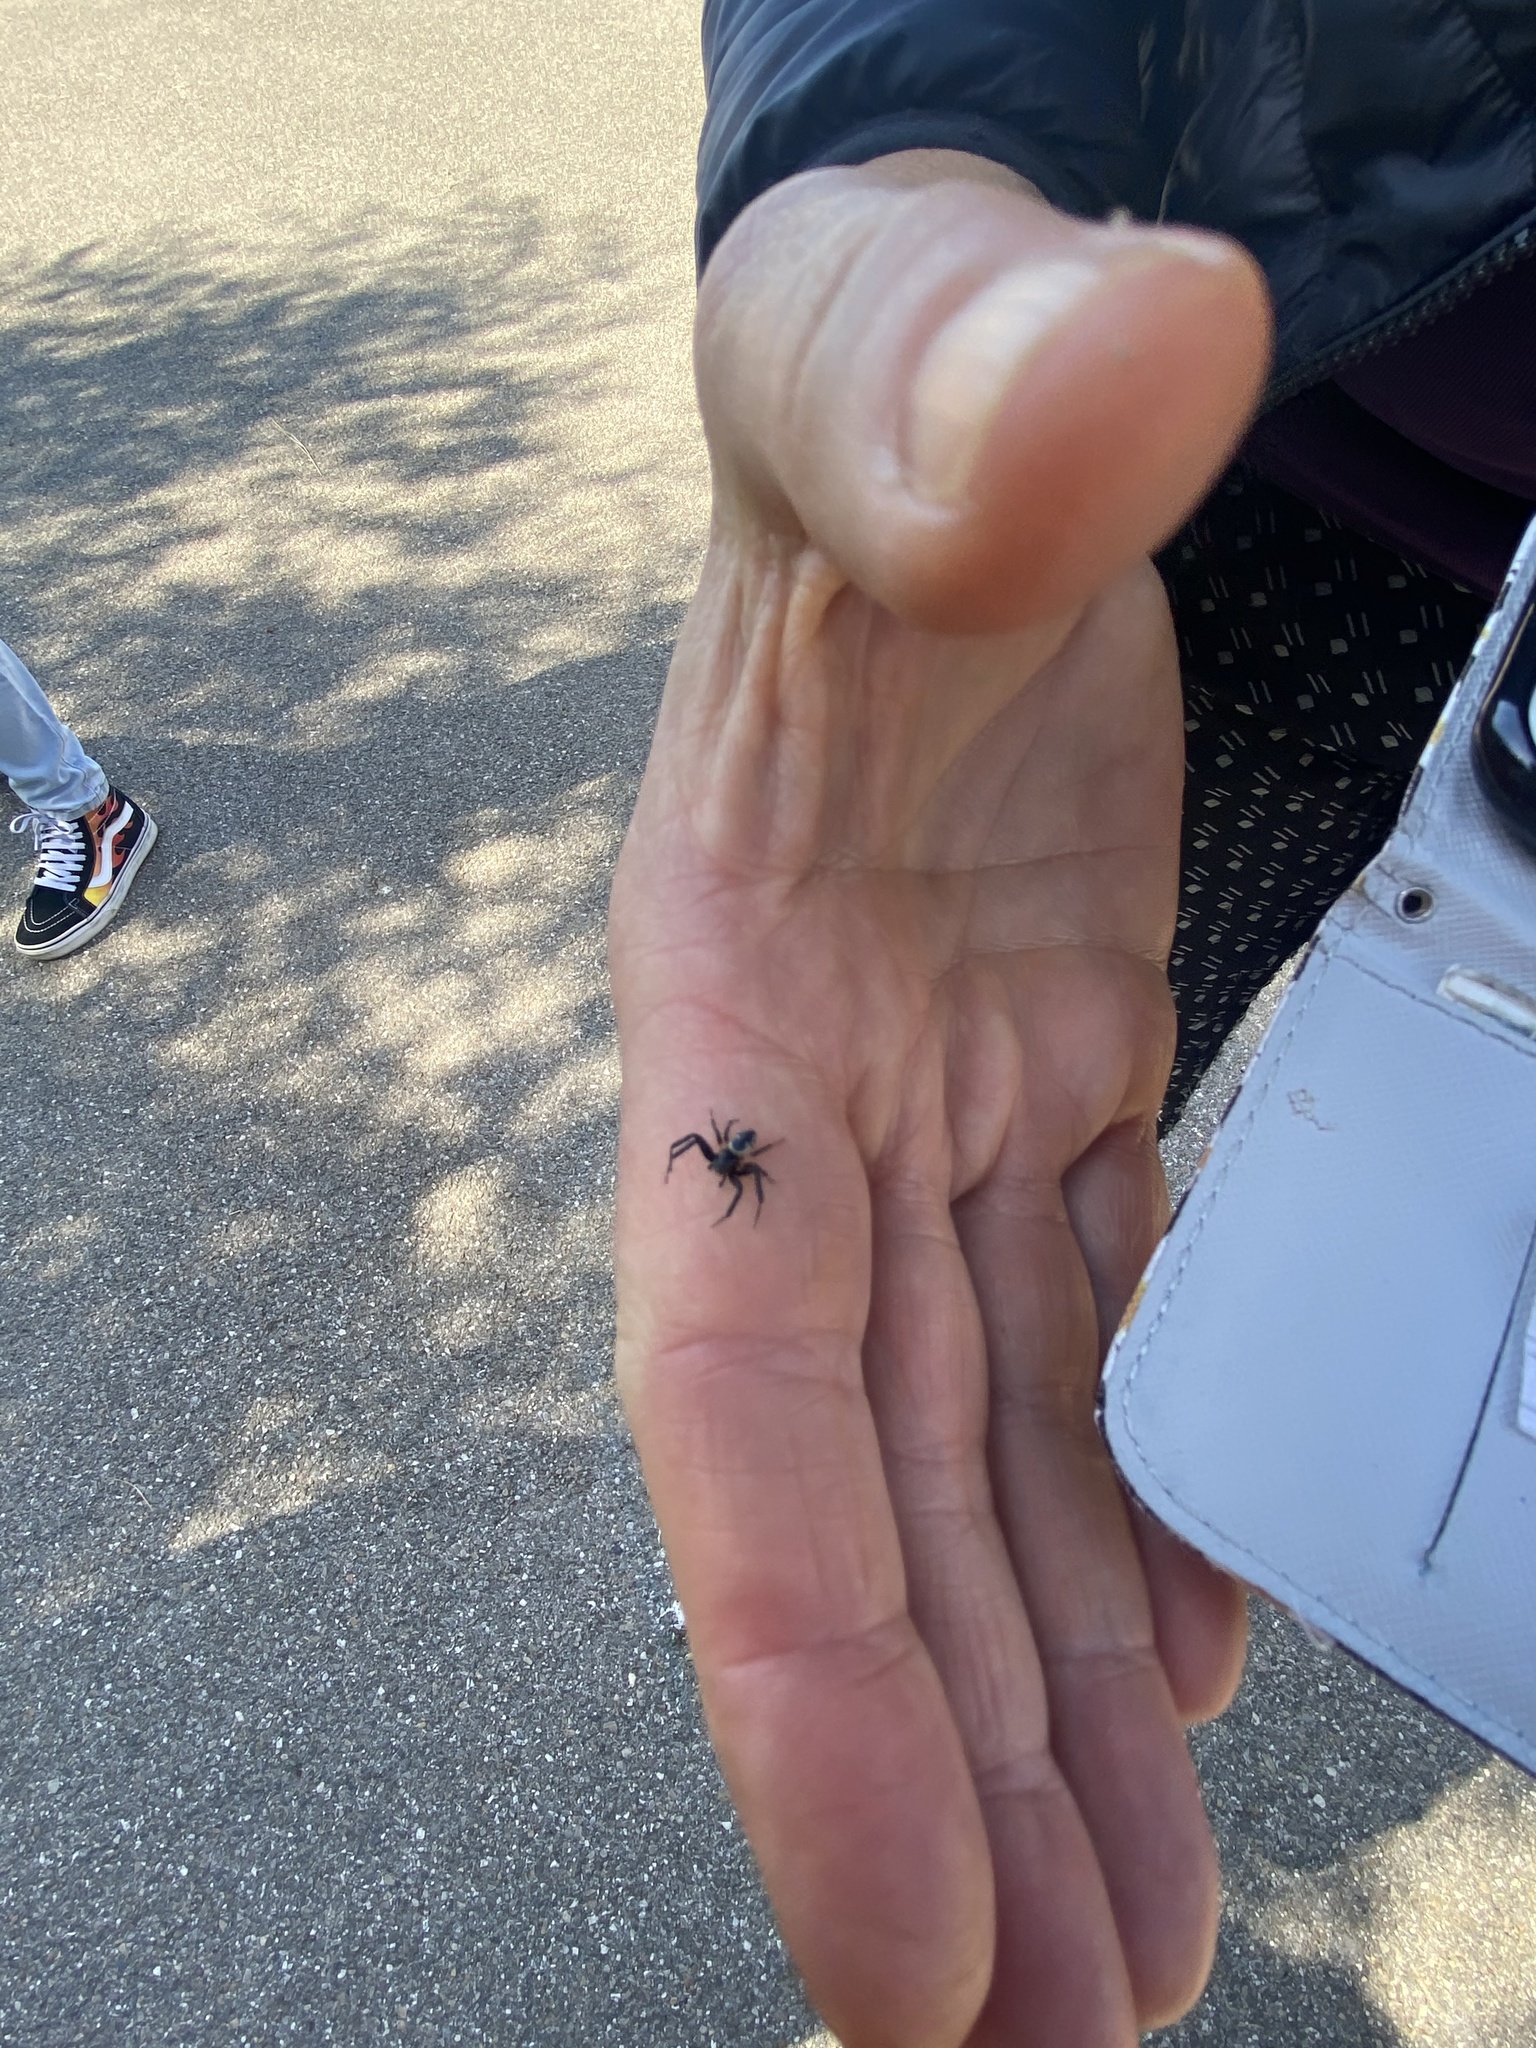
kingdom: Animalia
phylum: Arthropoda
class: Arachnida
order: Araneae
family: Thomisidae
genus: Synema
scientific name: Synema globosum
